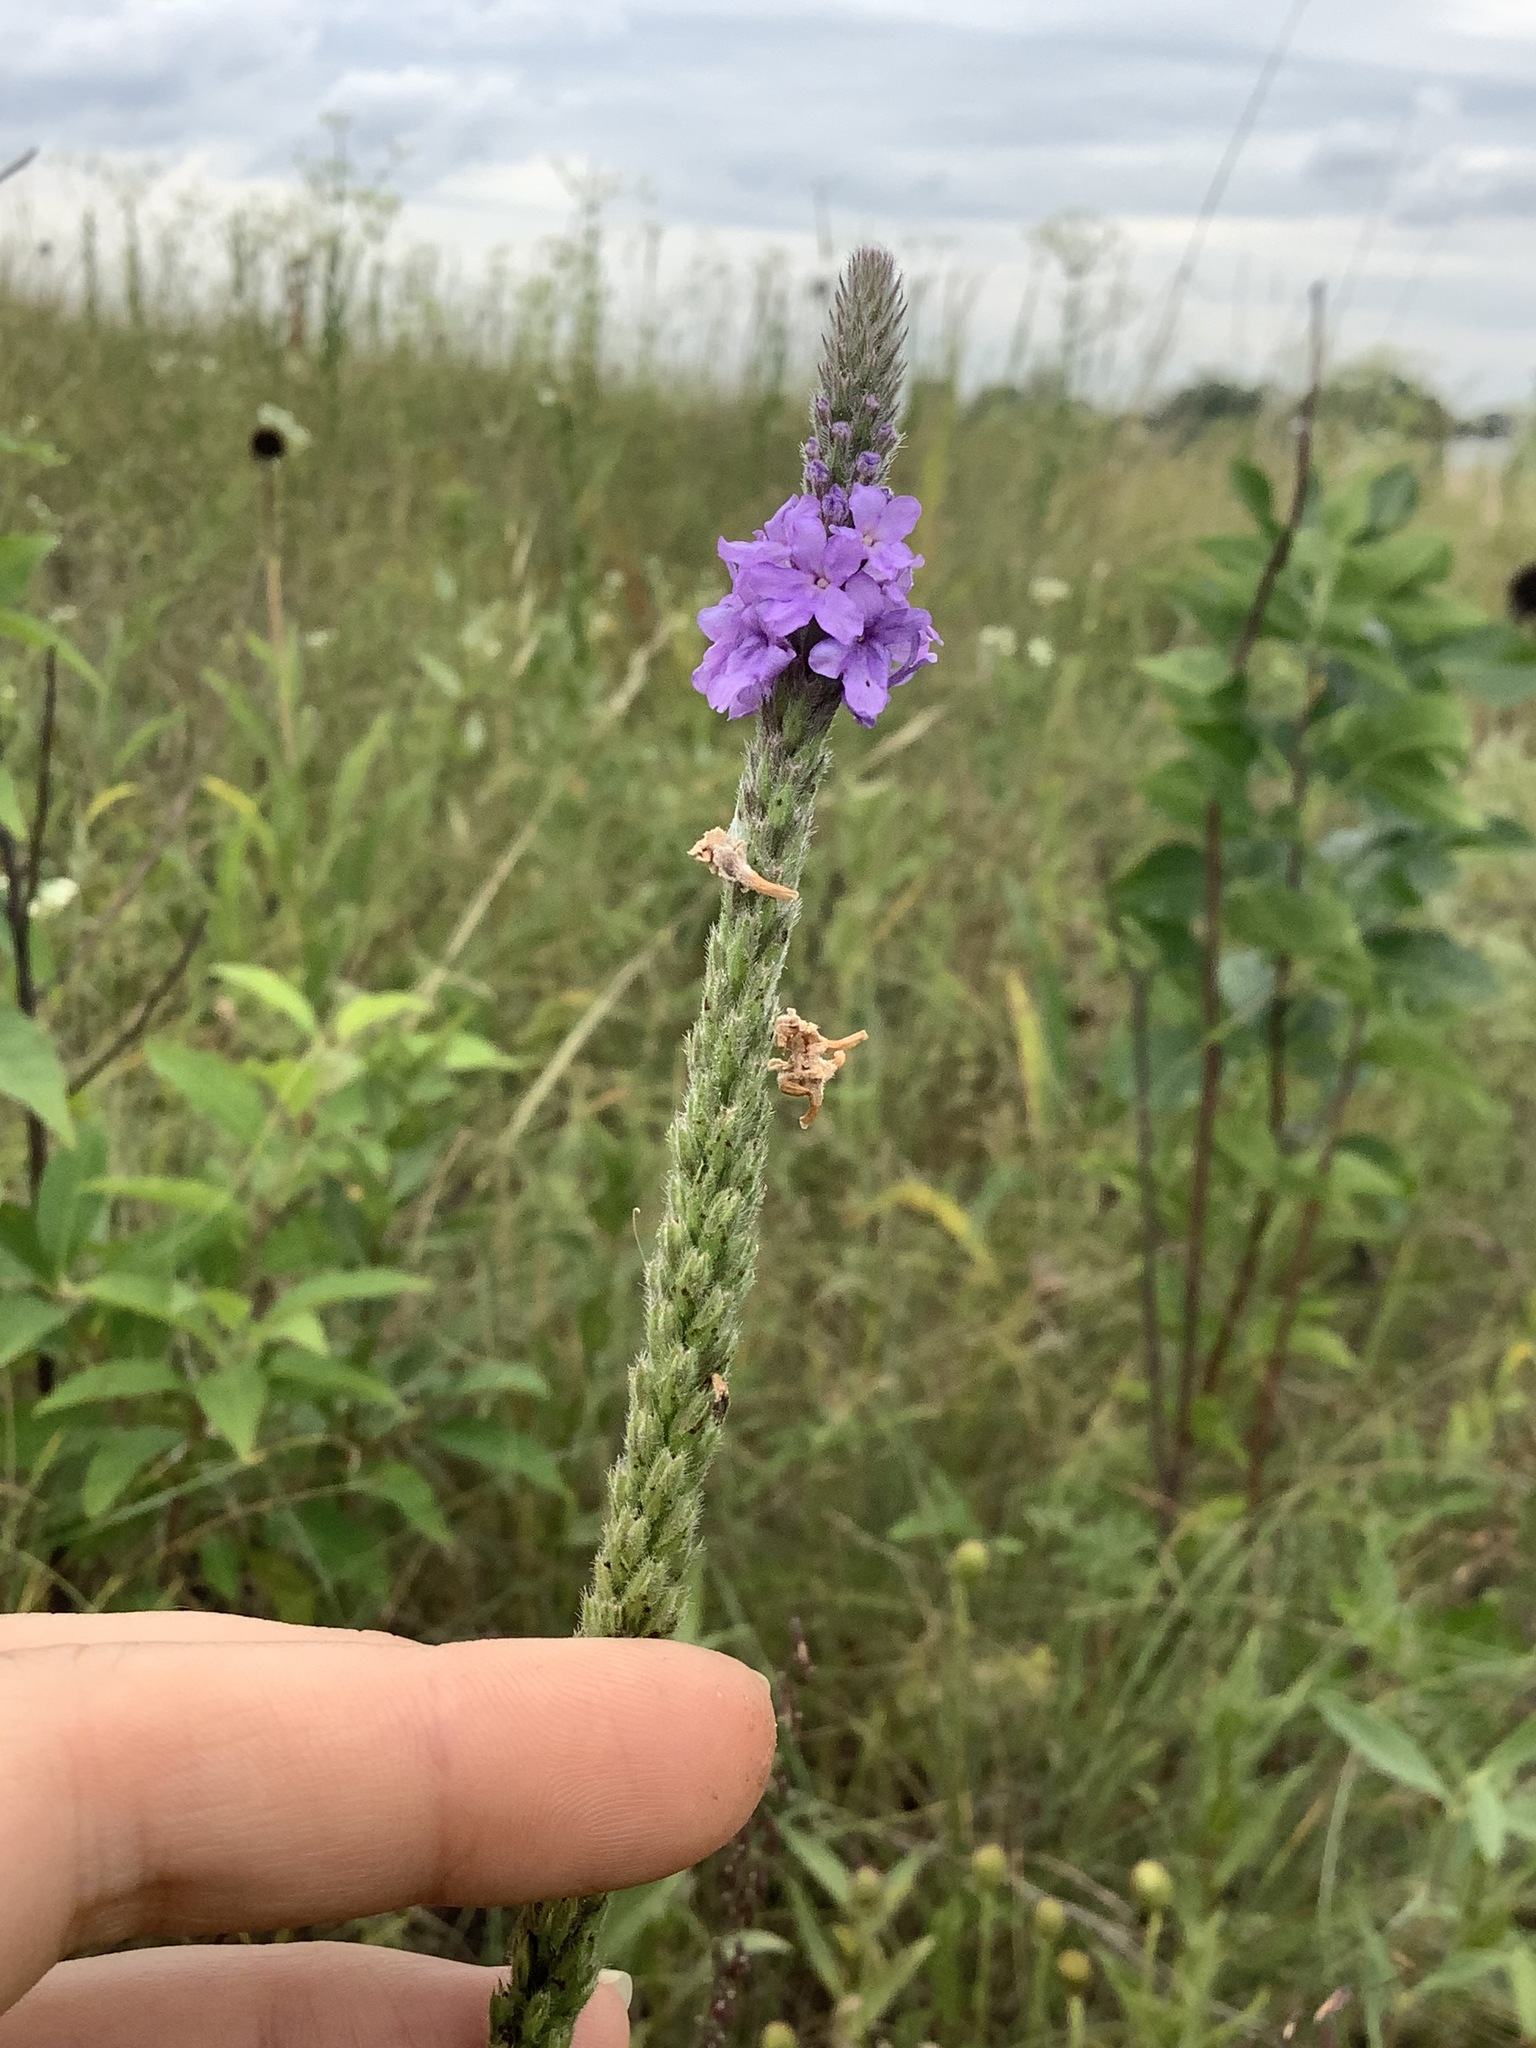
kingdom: Plantae
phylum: Tracheophyta
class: Magnoliopsida
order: Lamiales
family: Verbenaceae
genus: Verbena
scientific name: Verbena stricta
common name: Hoary vervain
